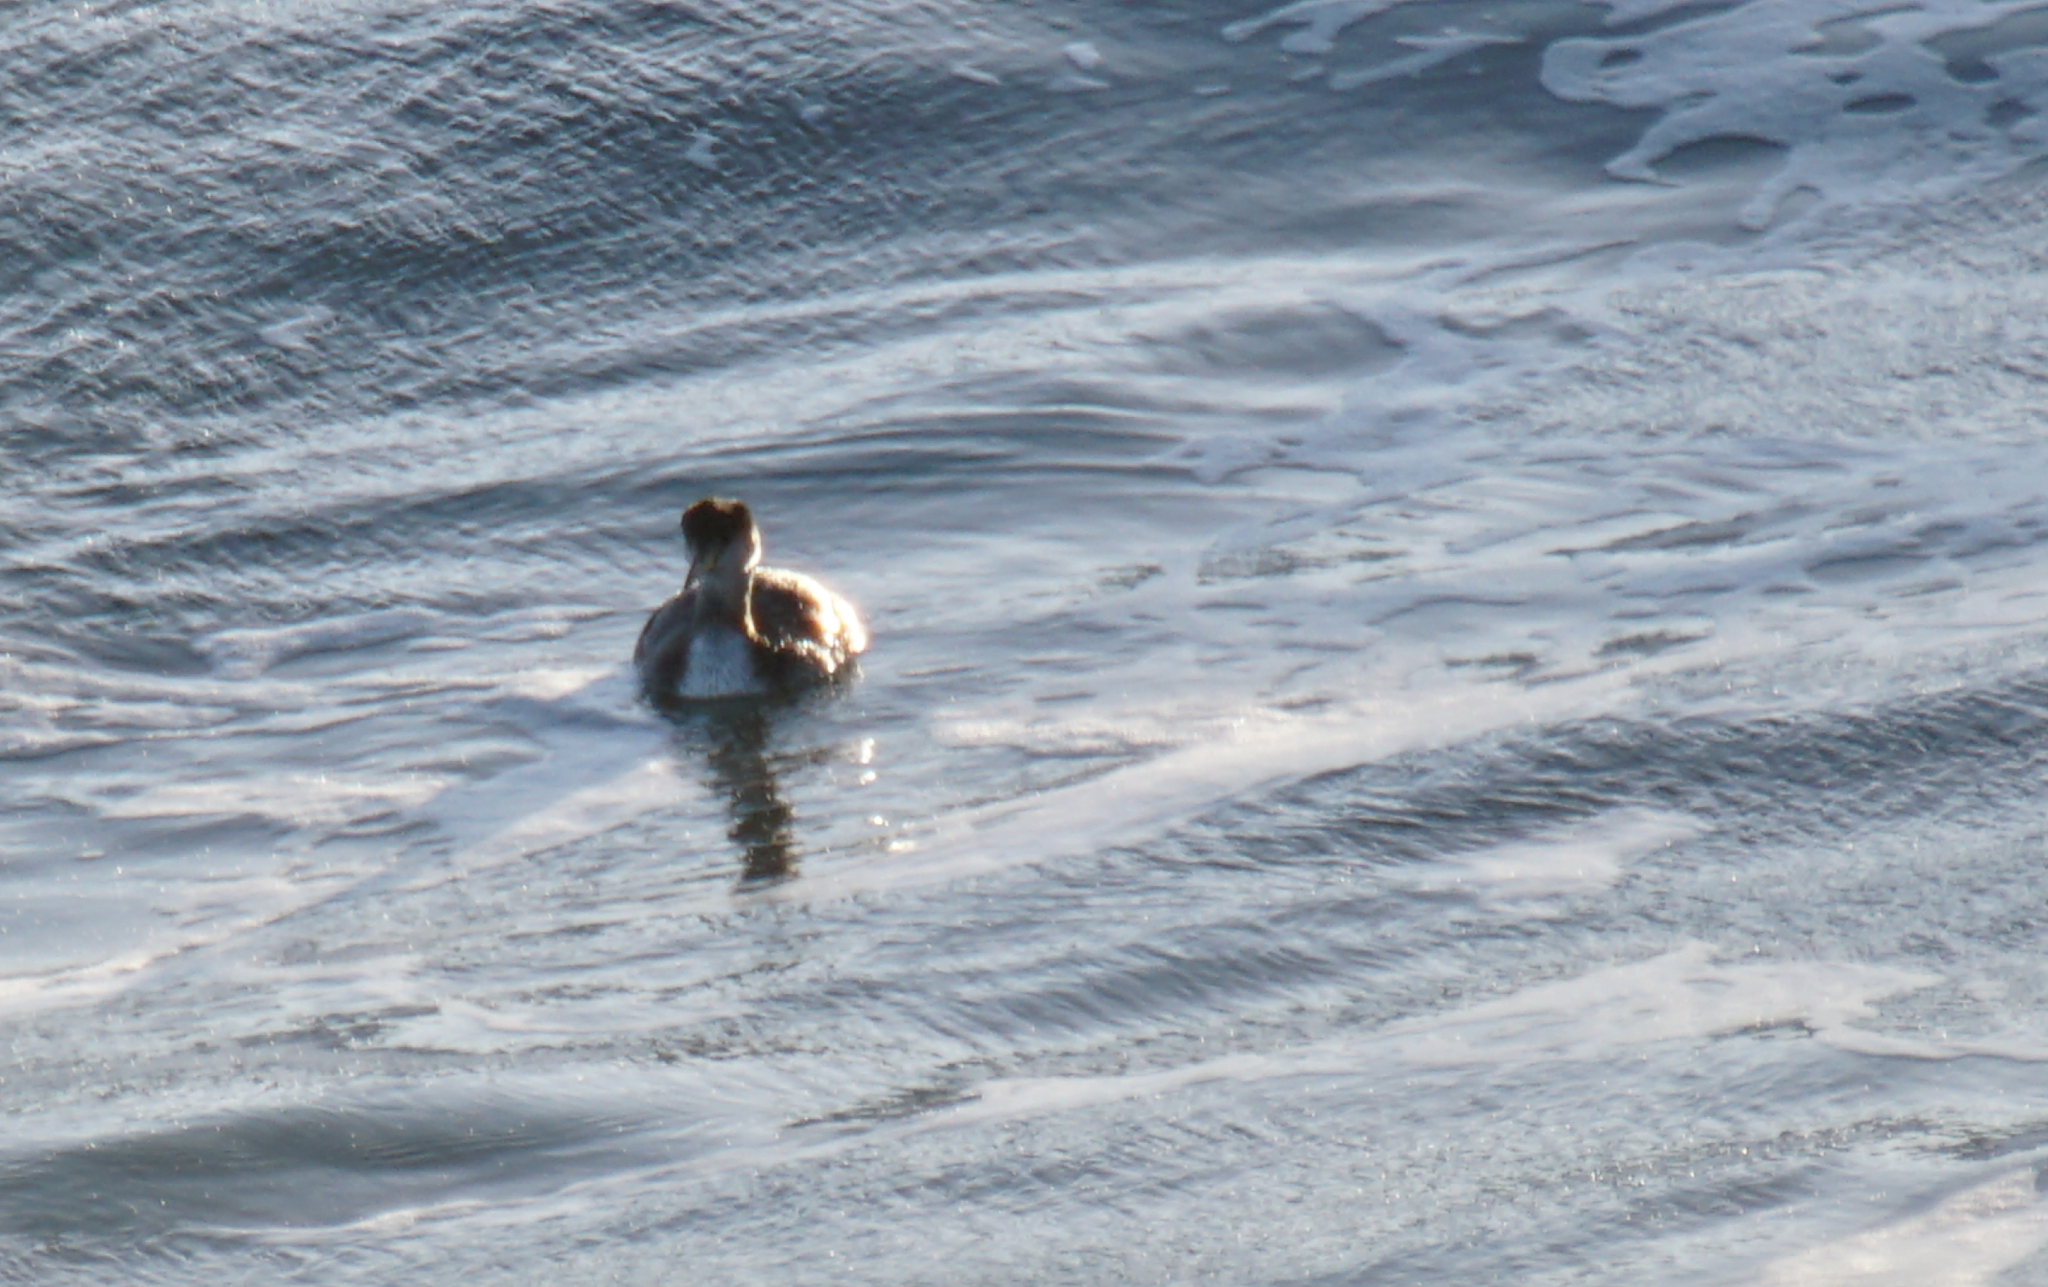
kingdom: Animalia
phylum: Chordata
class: Aves
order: Podicipediformes
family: Podicipedidae
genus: Podiceps
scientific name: Podiceps grisegena
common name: Red-necked grebe
